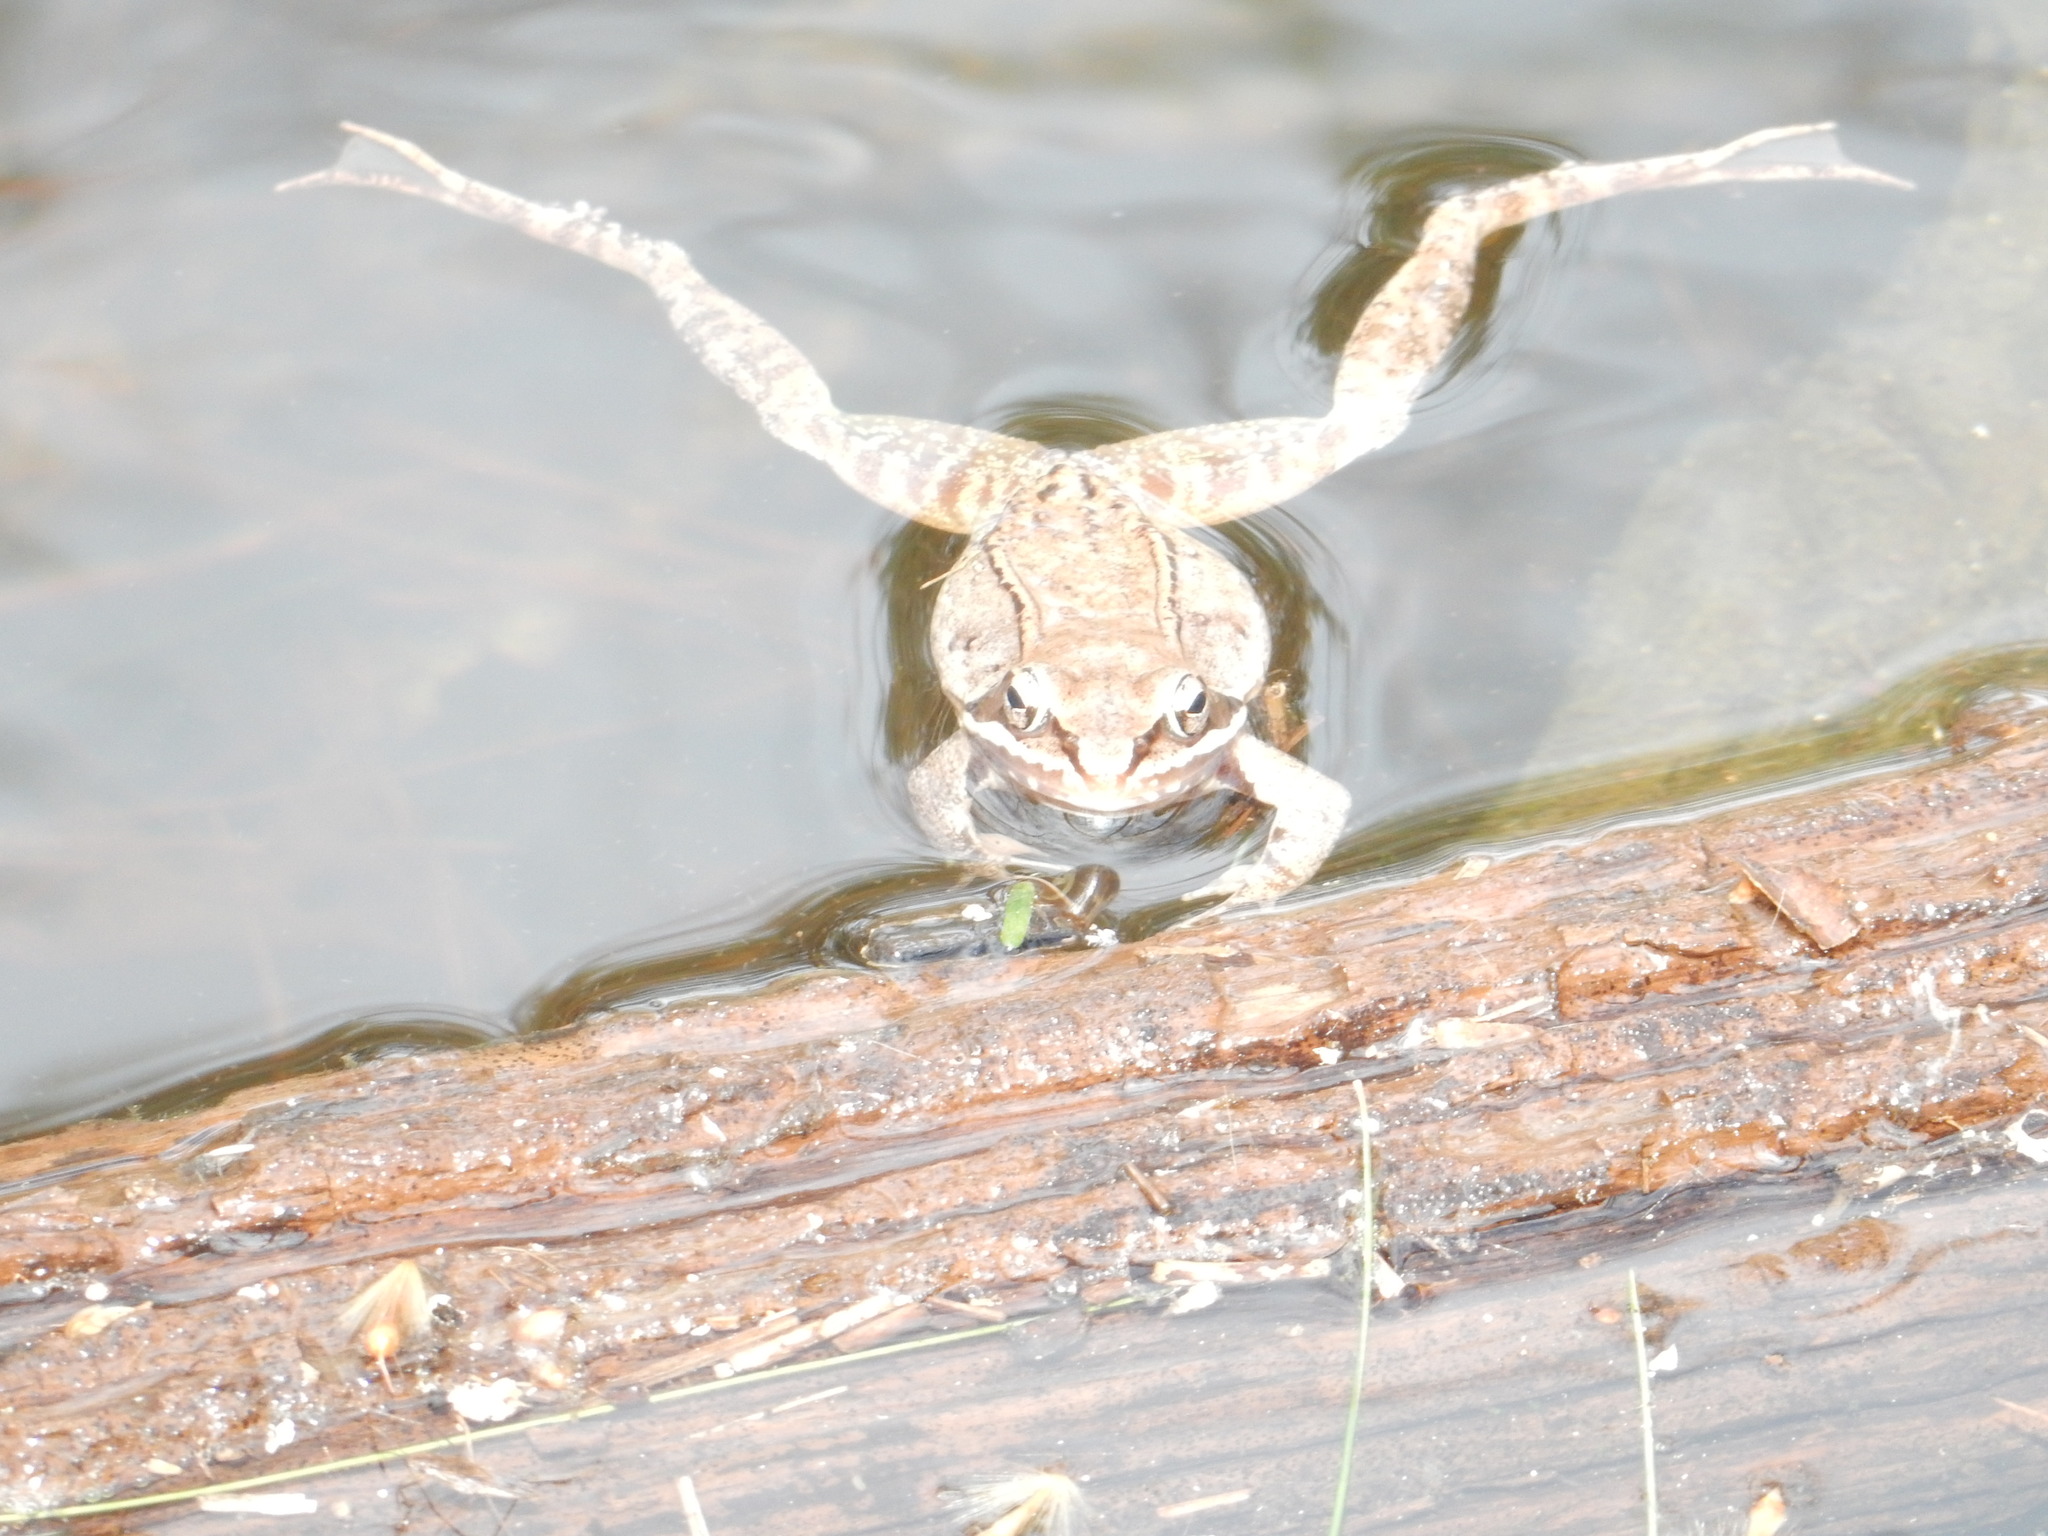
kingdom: Animalia
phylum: Chordata
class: Amphibia
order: Anura
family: Ranidae
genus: Lithobates
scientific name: Lithobates sylvaticus
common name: Wood frog
